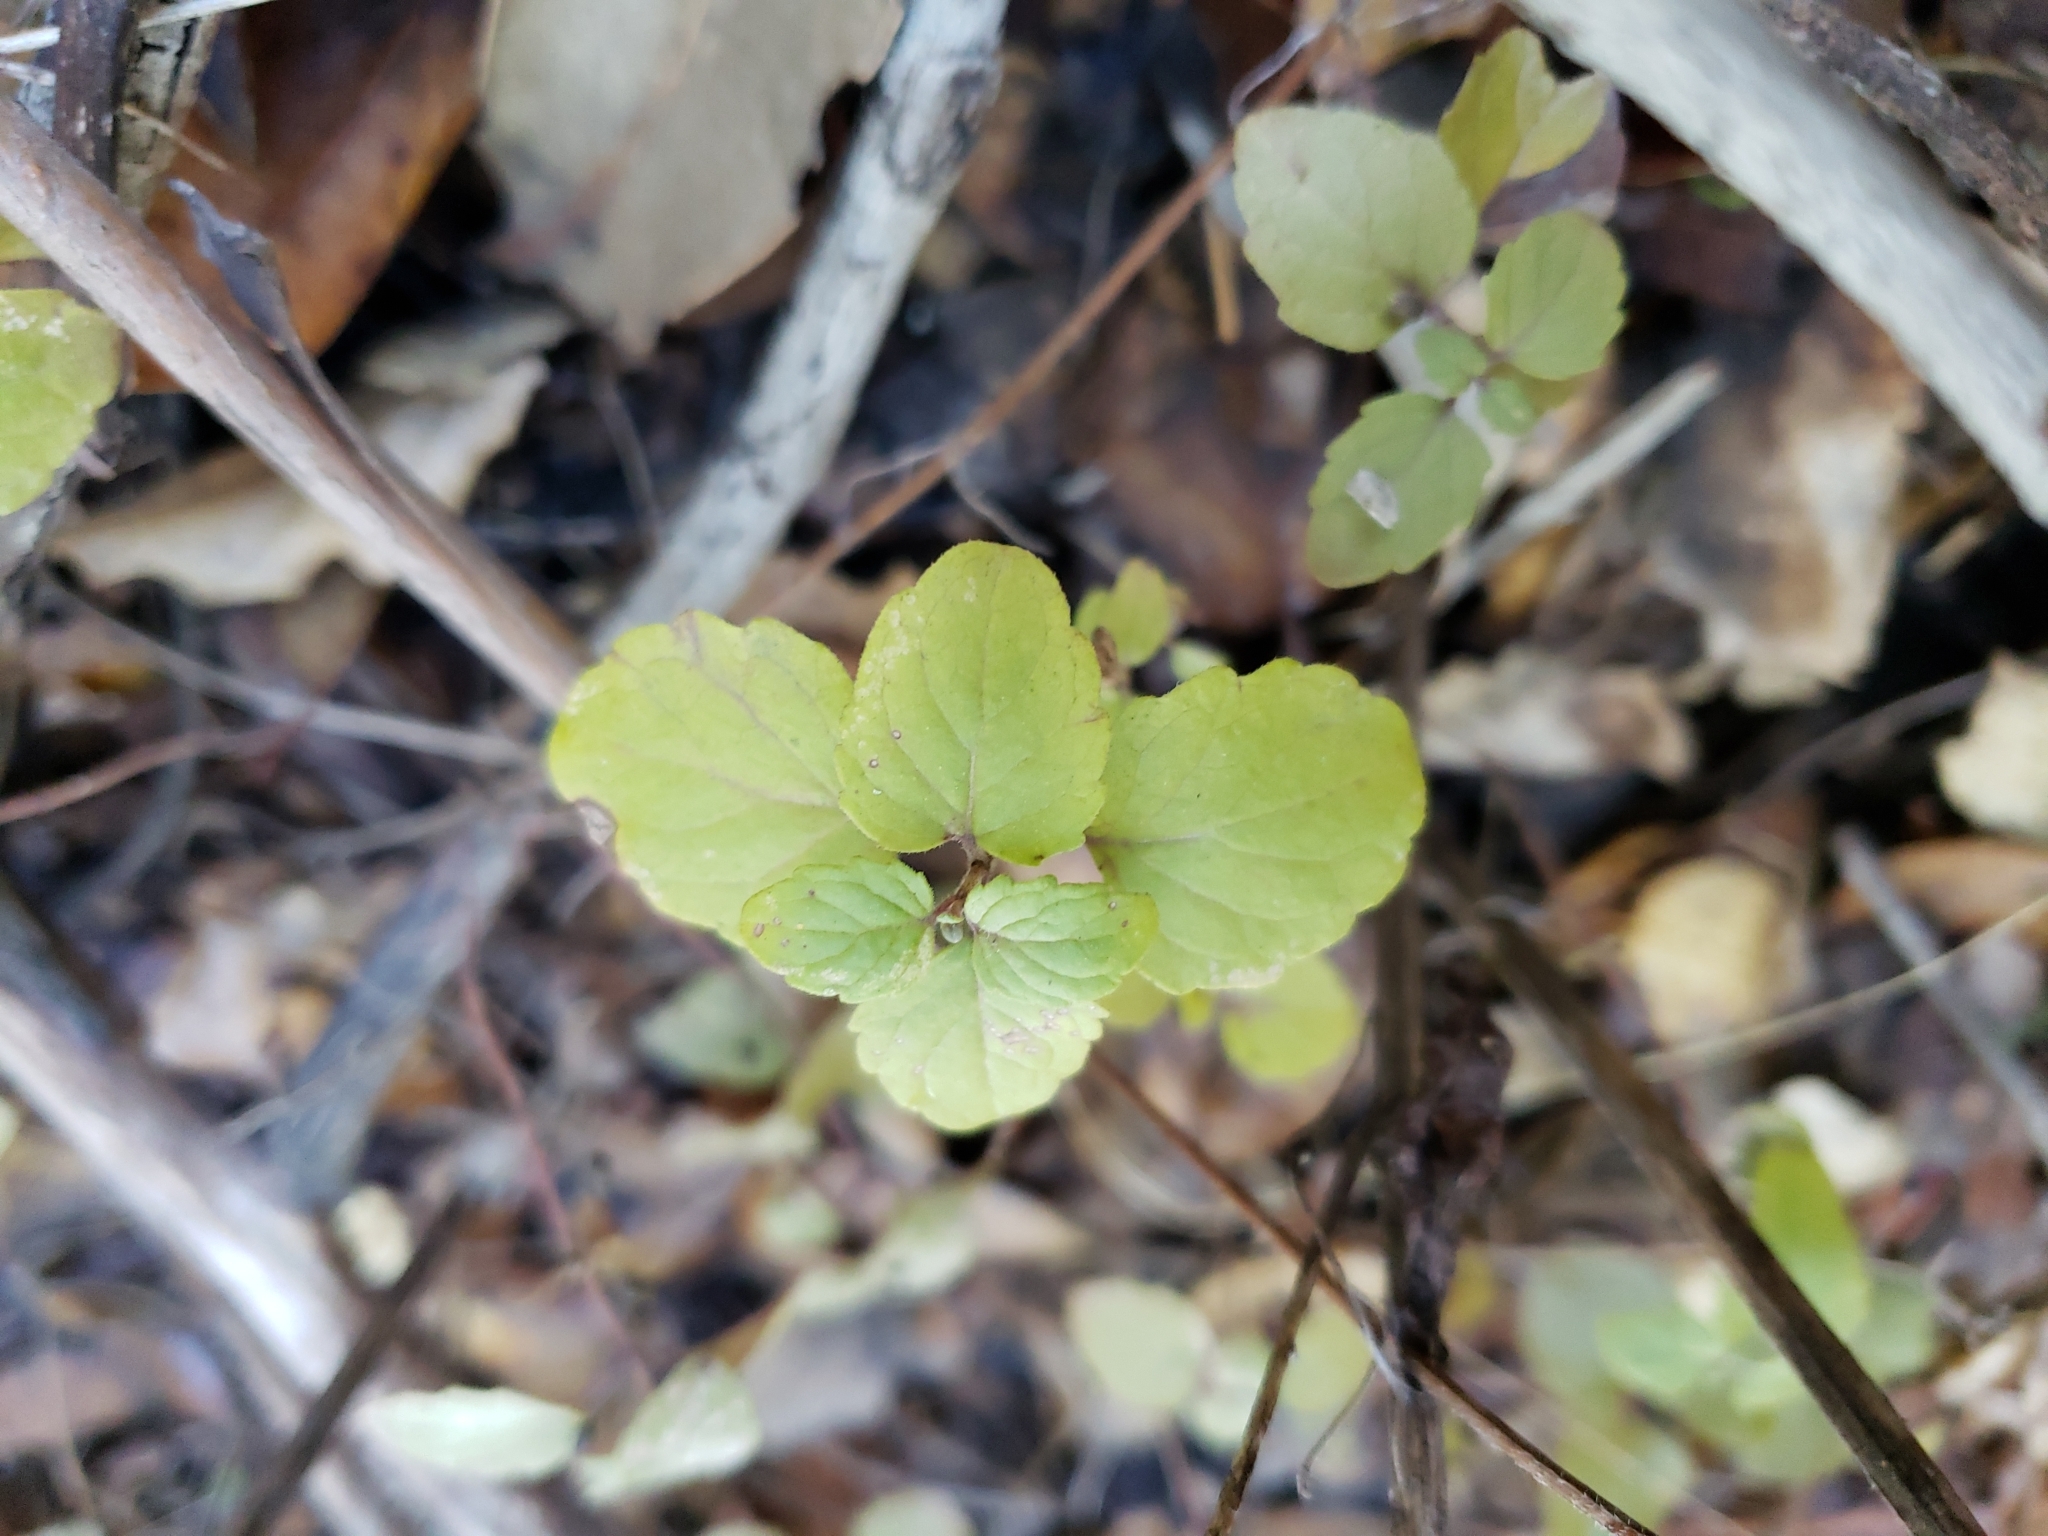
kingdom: Plantae
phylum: Tracheophyta
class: Magnoliopsida
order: Lamiales
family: Lamiaceae
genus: Micromeria
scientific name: Micromeria douglasii
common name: Yerba buena
